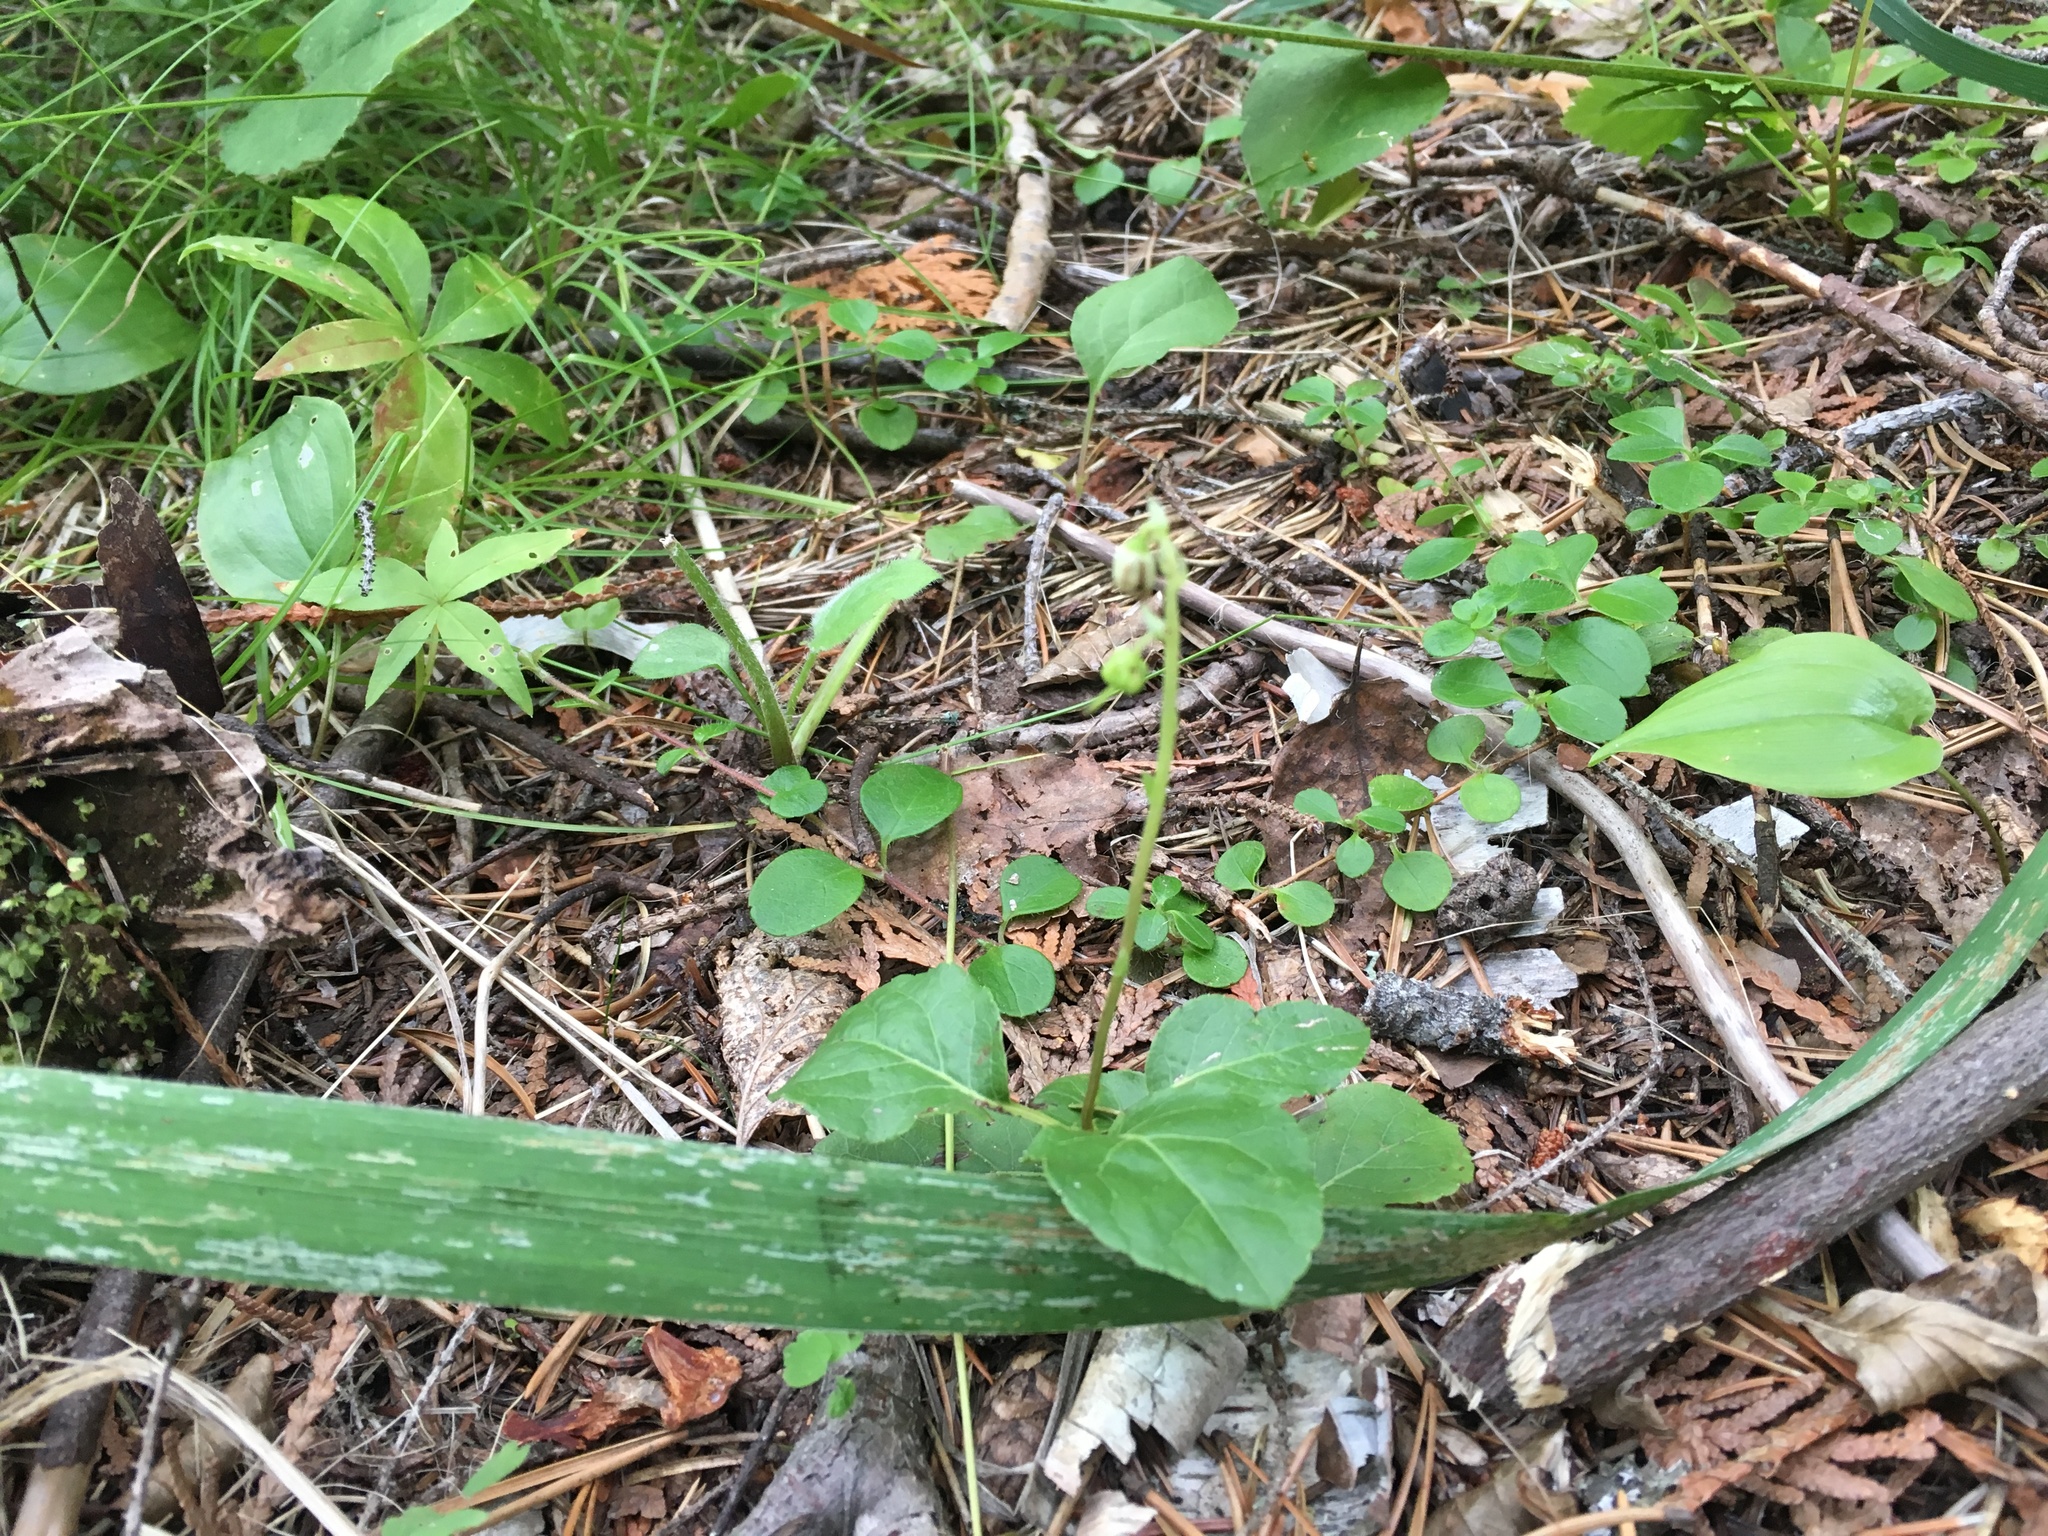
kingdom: Plantae
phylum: Tracheophyta
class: Magnoliopsida
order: Ericales
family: Ericaceae
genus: Orthilia
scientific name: Orthilia secunda
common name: One-sided orthilia
